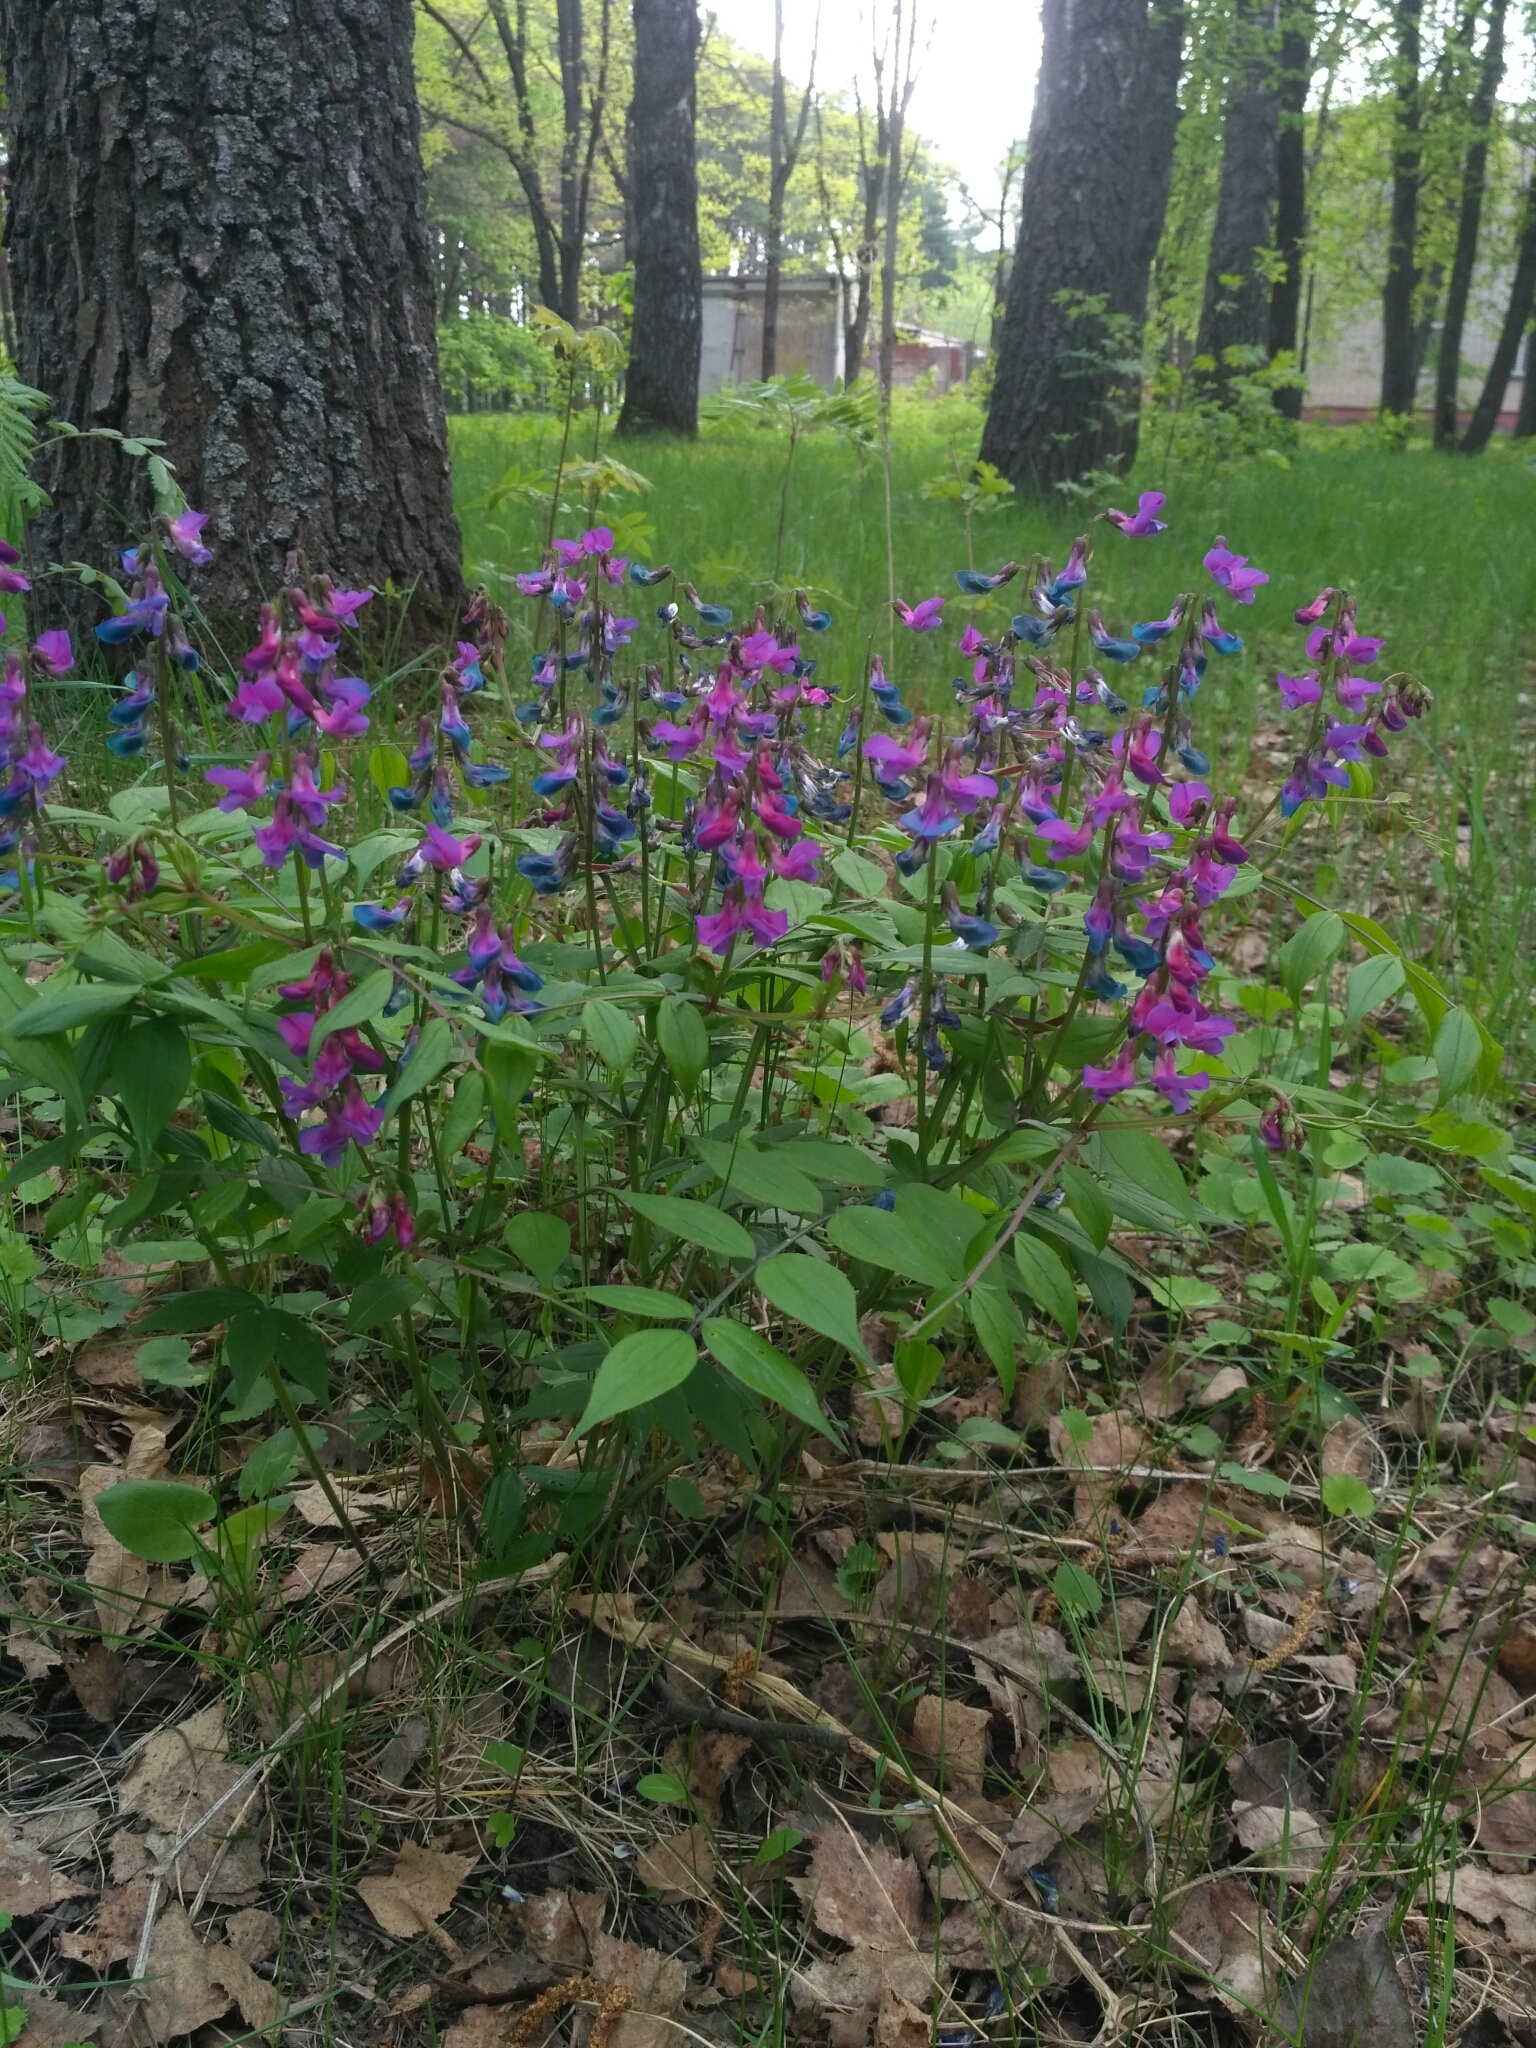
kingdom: Plantae
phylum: Tracheophyta
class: Magnoliopsida
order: Fabales
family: Fabaceae
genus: Lathyrus
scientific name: Lathyrus vernus
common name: Spring pea
